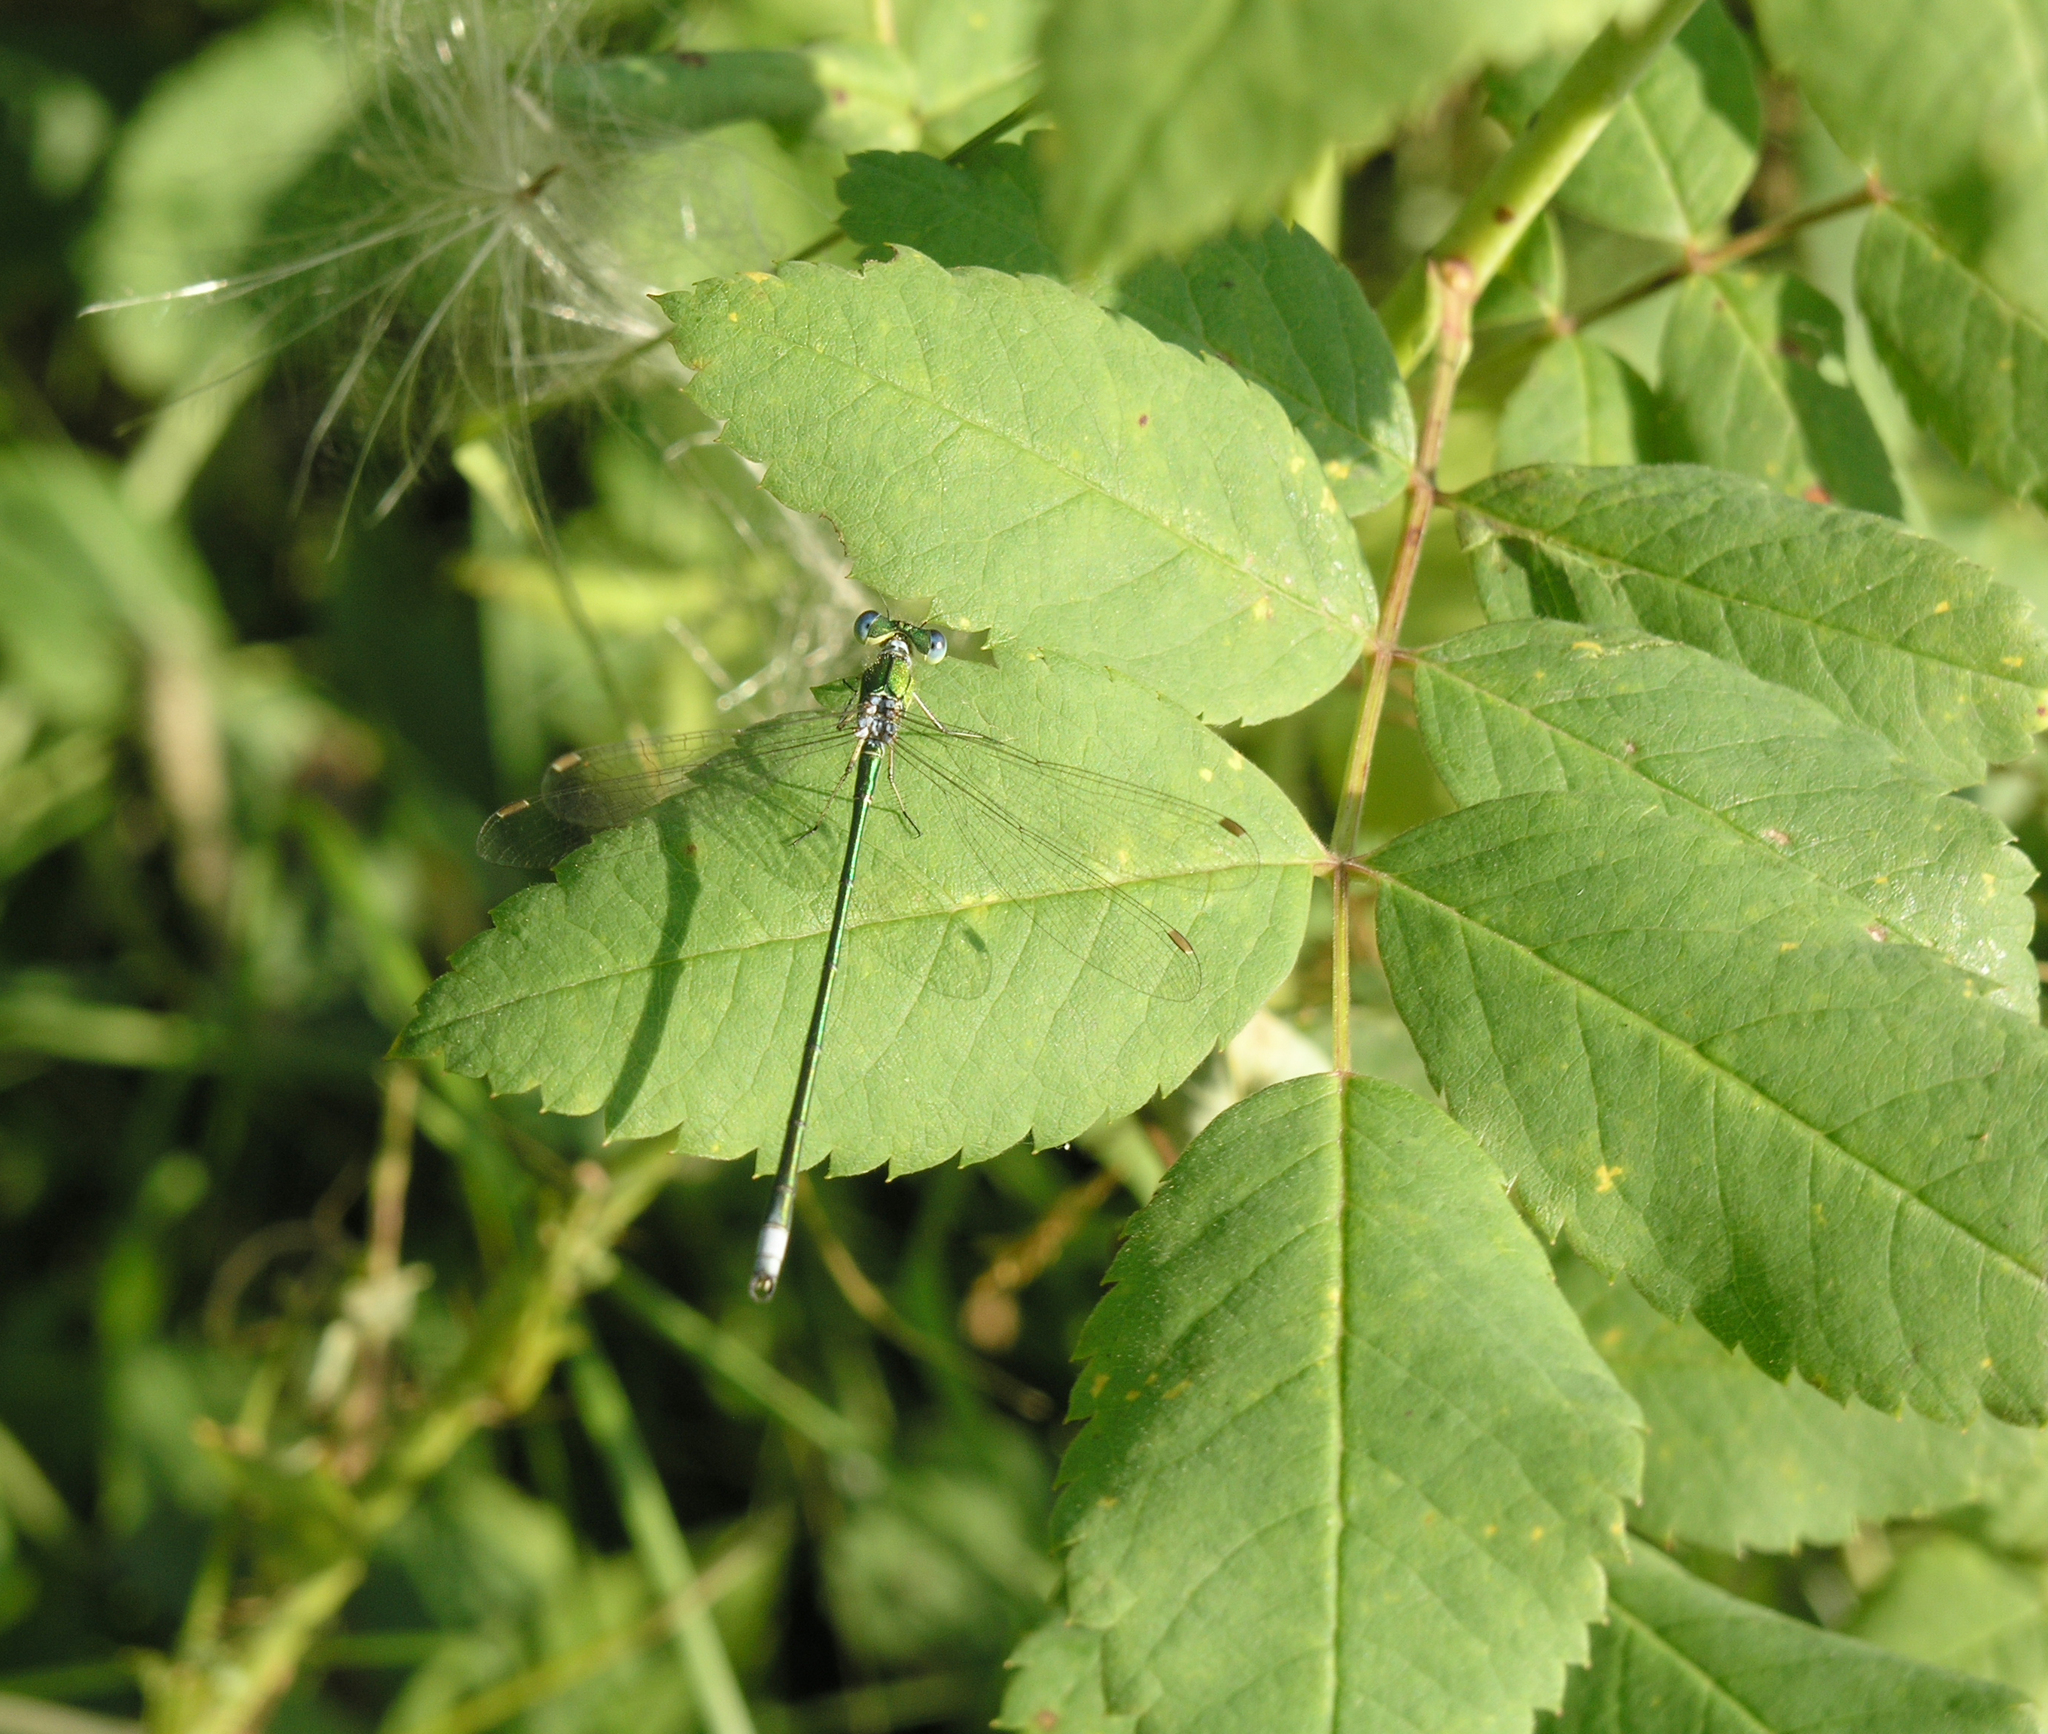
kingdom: Animalia
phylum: Arthropoda
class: Insecta
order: Odonata
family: Lestidae
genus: Lestes
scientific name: Lestes virens
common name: Small emerald spreadwing
